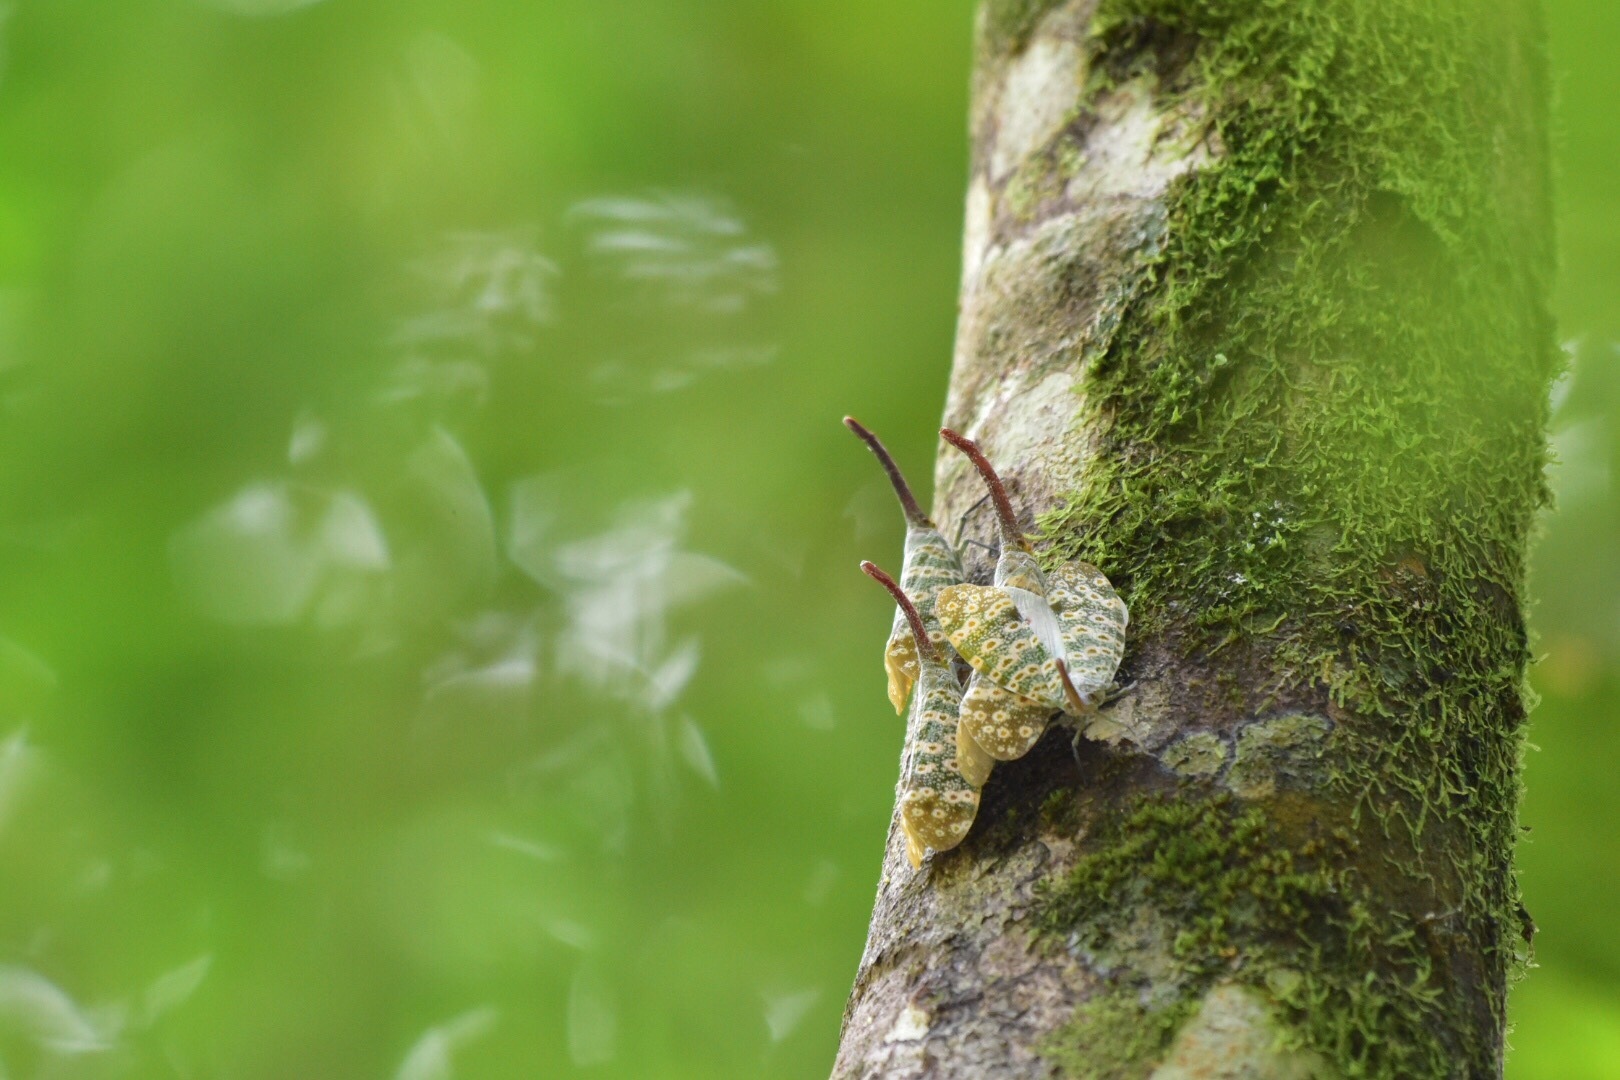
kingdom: Animalia
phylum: Arthropoda
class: Insecta
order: Hemiptera
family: Fulgoridae
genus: Pyrops
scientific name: Pyrops oculatus
